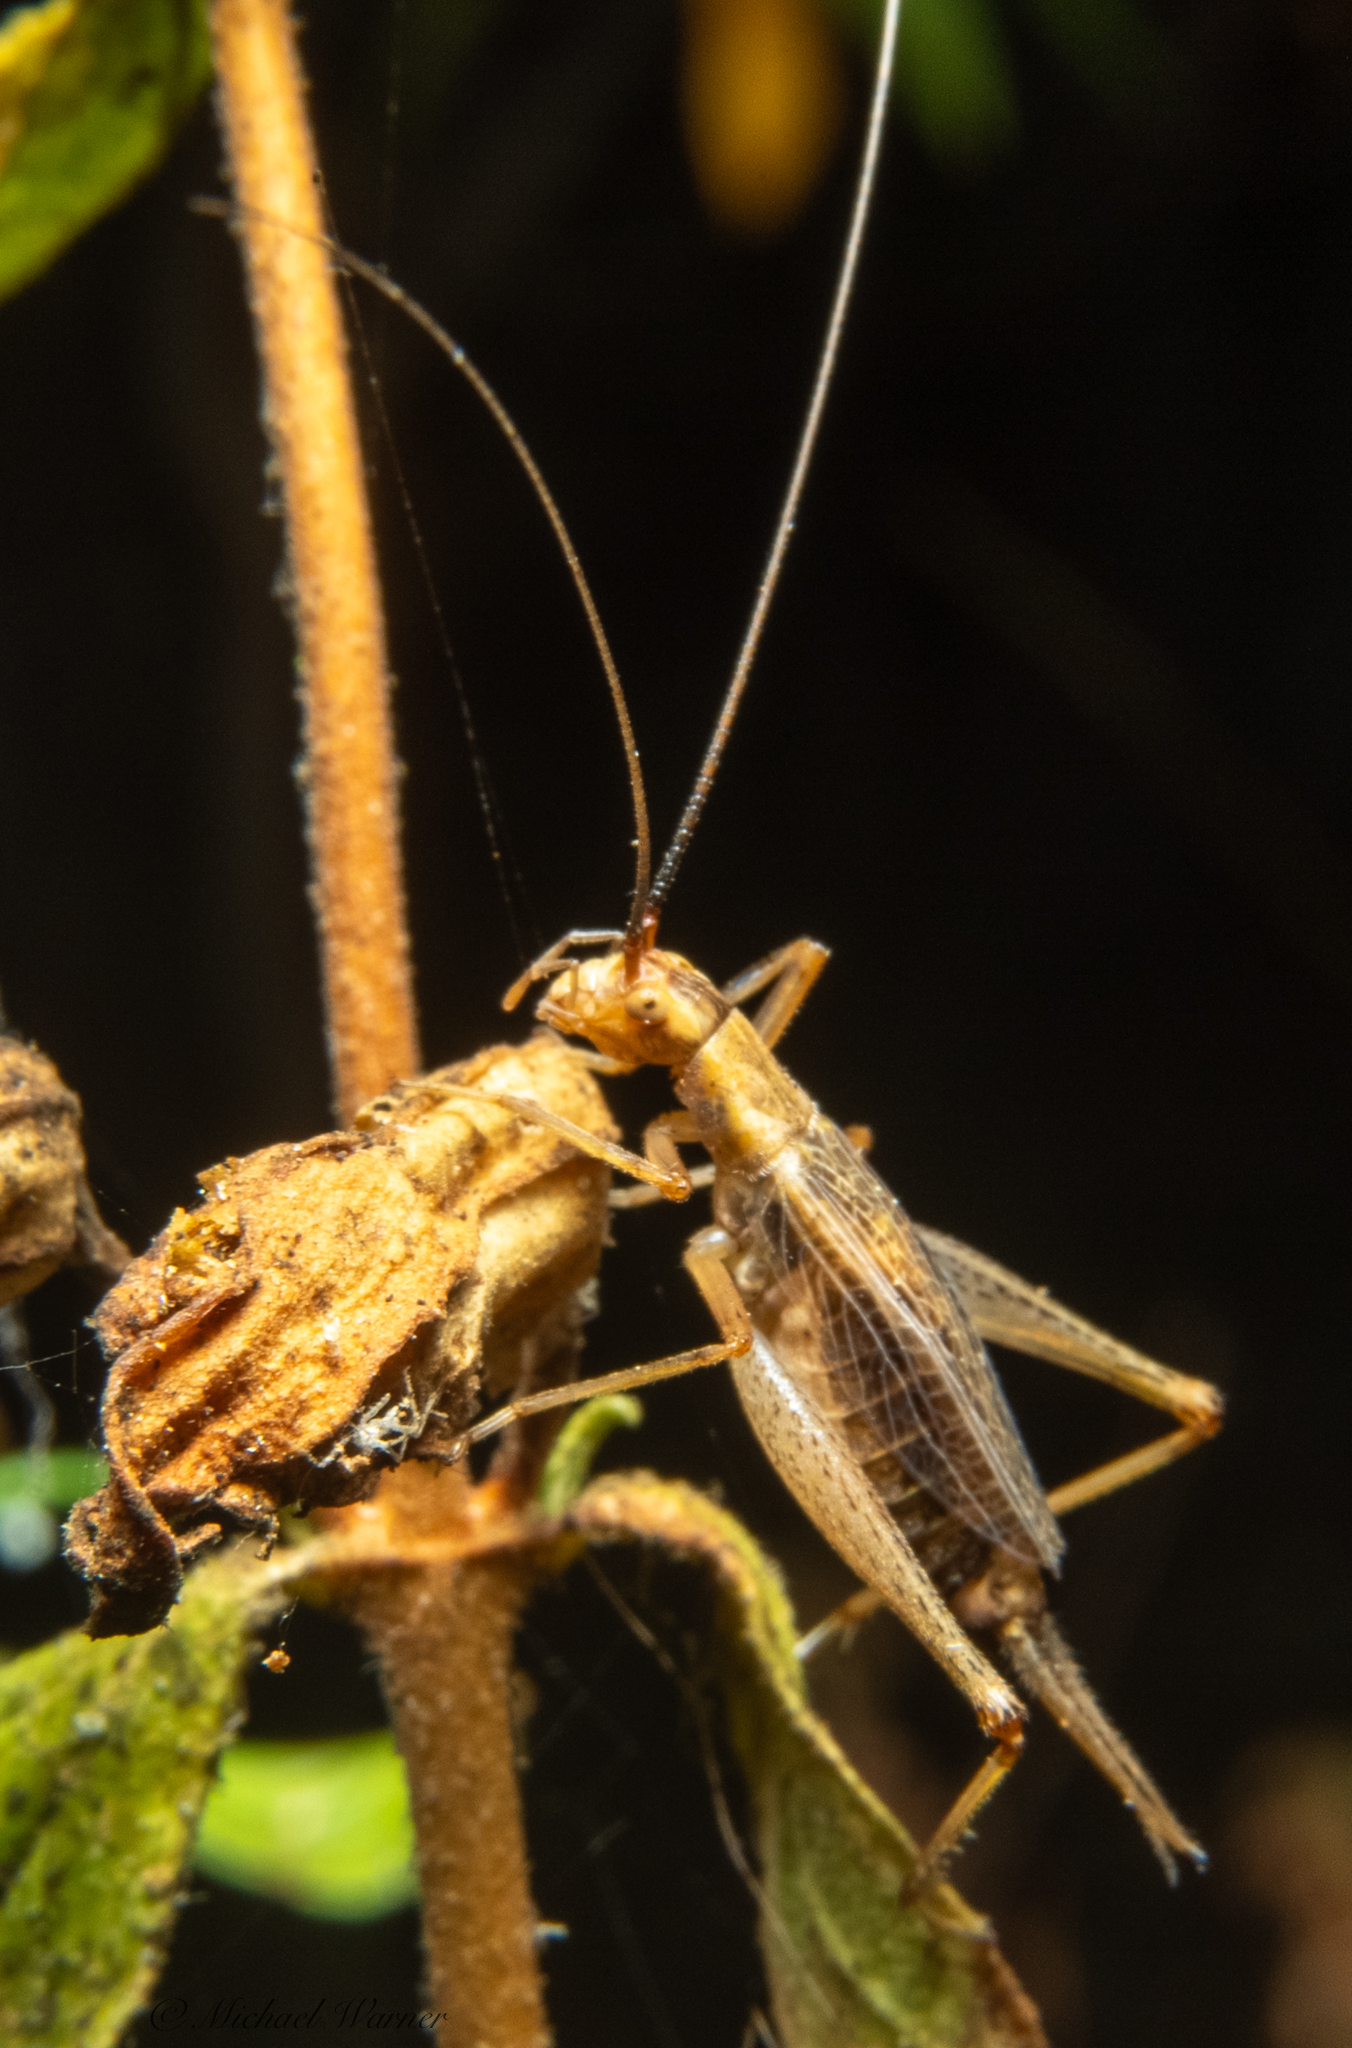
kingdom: Animalia
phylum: Arthropoda
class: Insecta
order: Orthoptera
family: Gryllidae
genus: Oecanthus
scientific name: Oecanthus californicus
